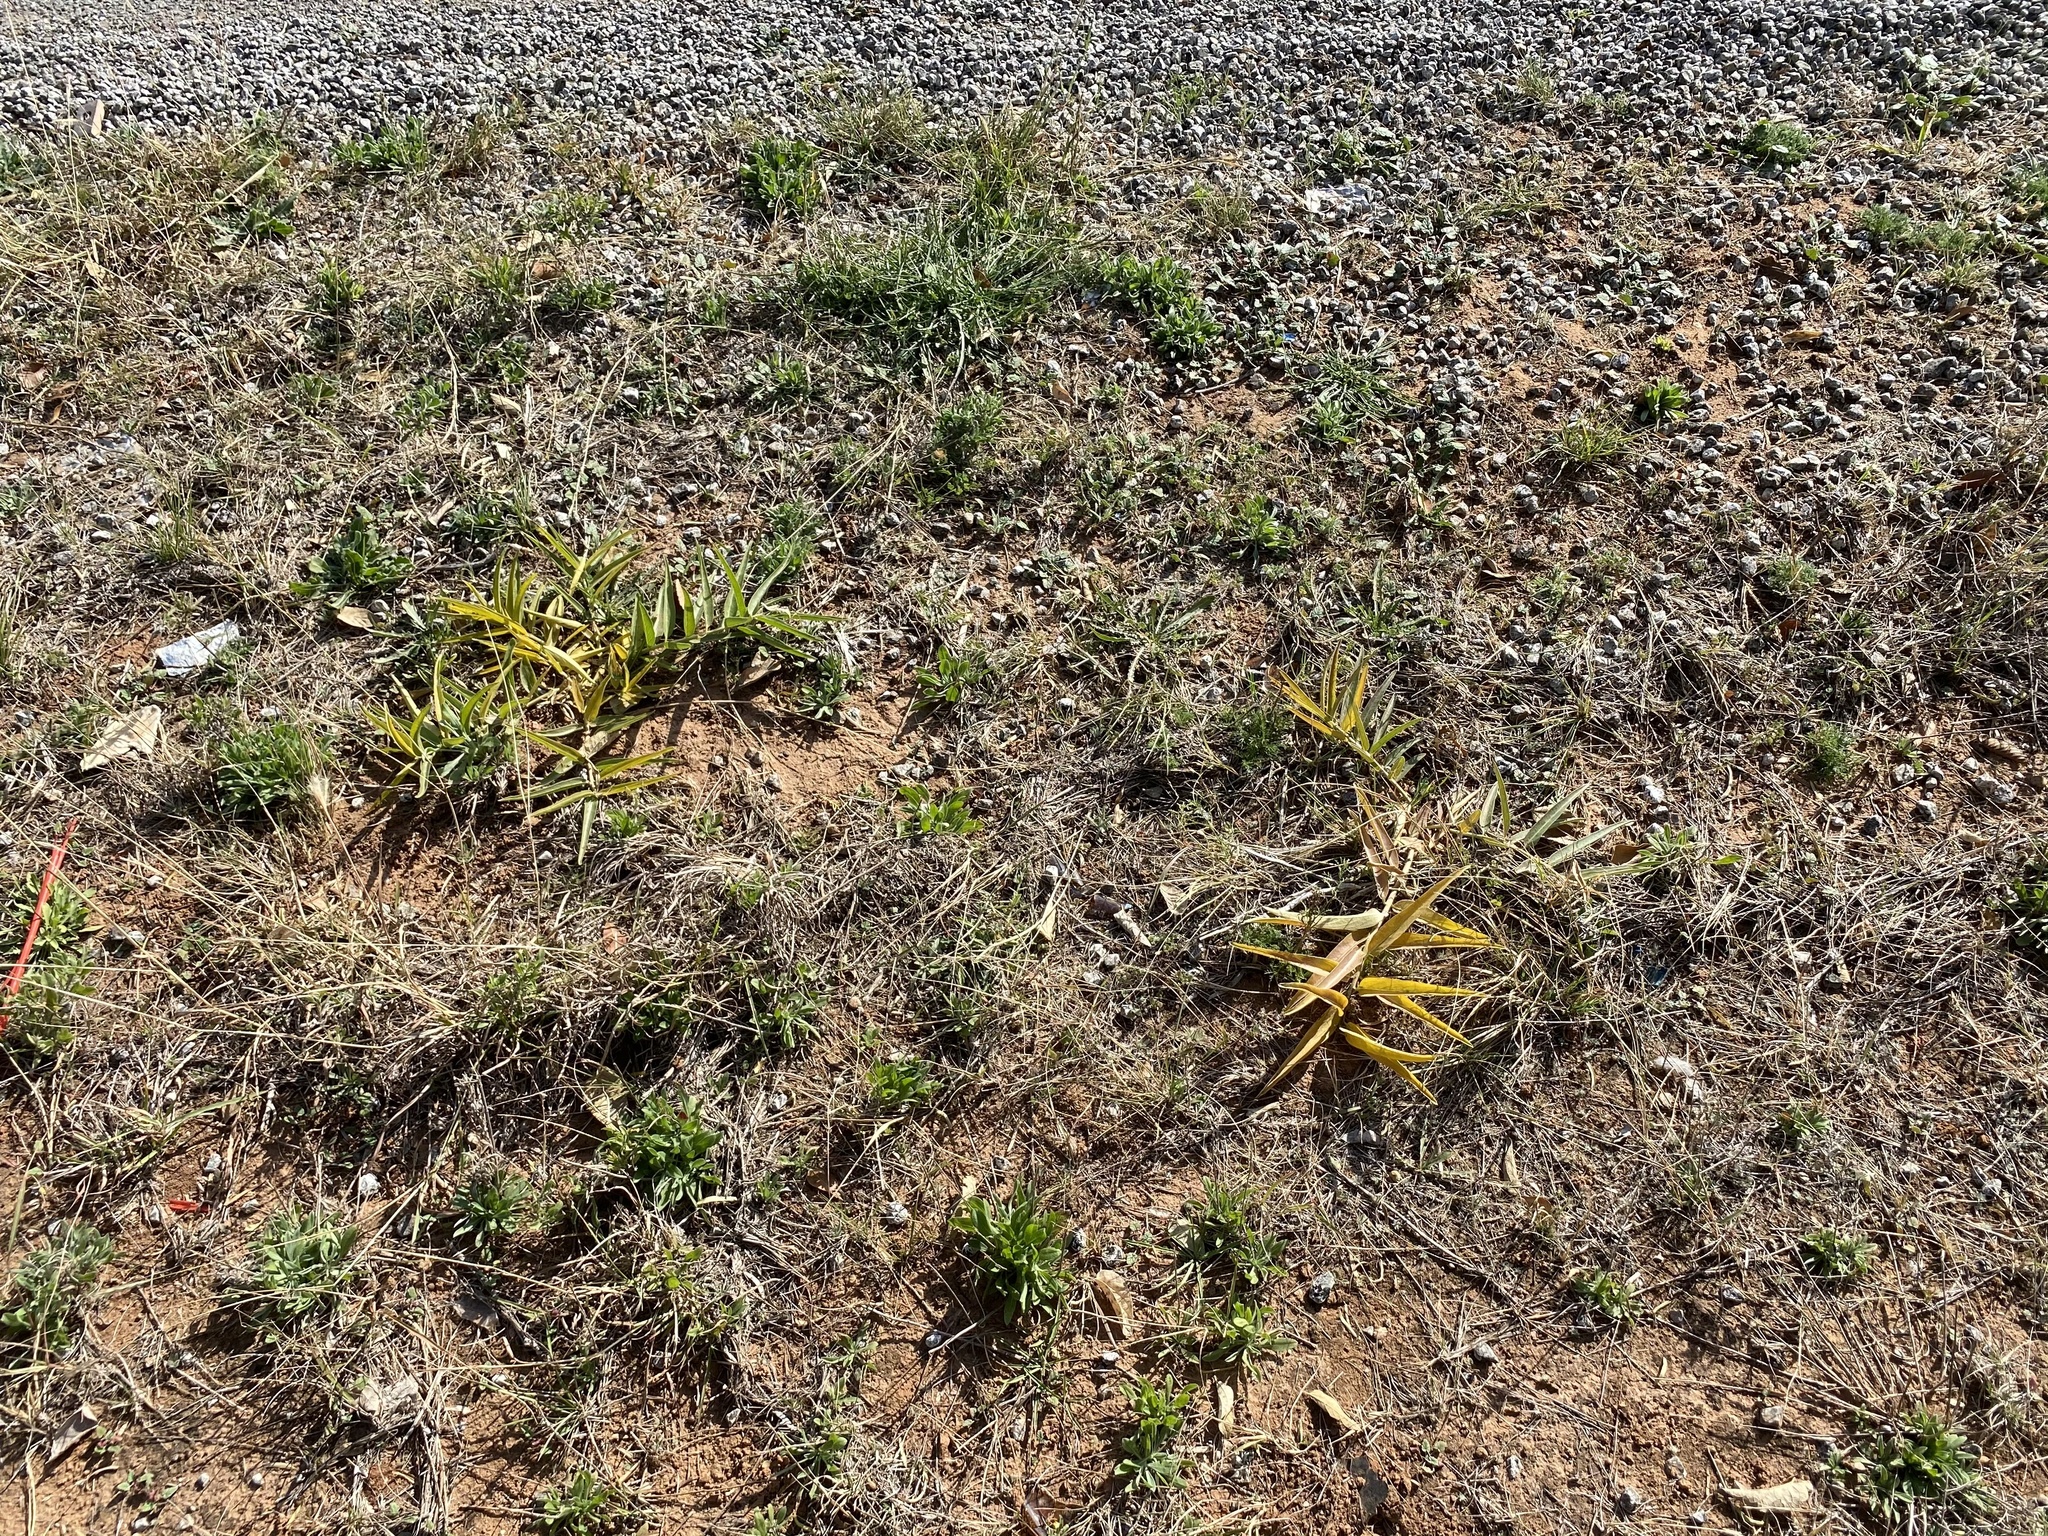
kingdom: Plantae
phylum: Tracheophyta
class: Magnoliopsida
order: Gentianales
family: Apocynaceae
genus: Asclepias
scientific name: Asclepias asperula
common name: Antelope horns
